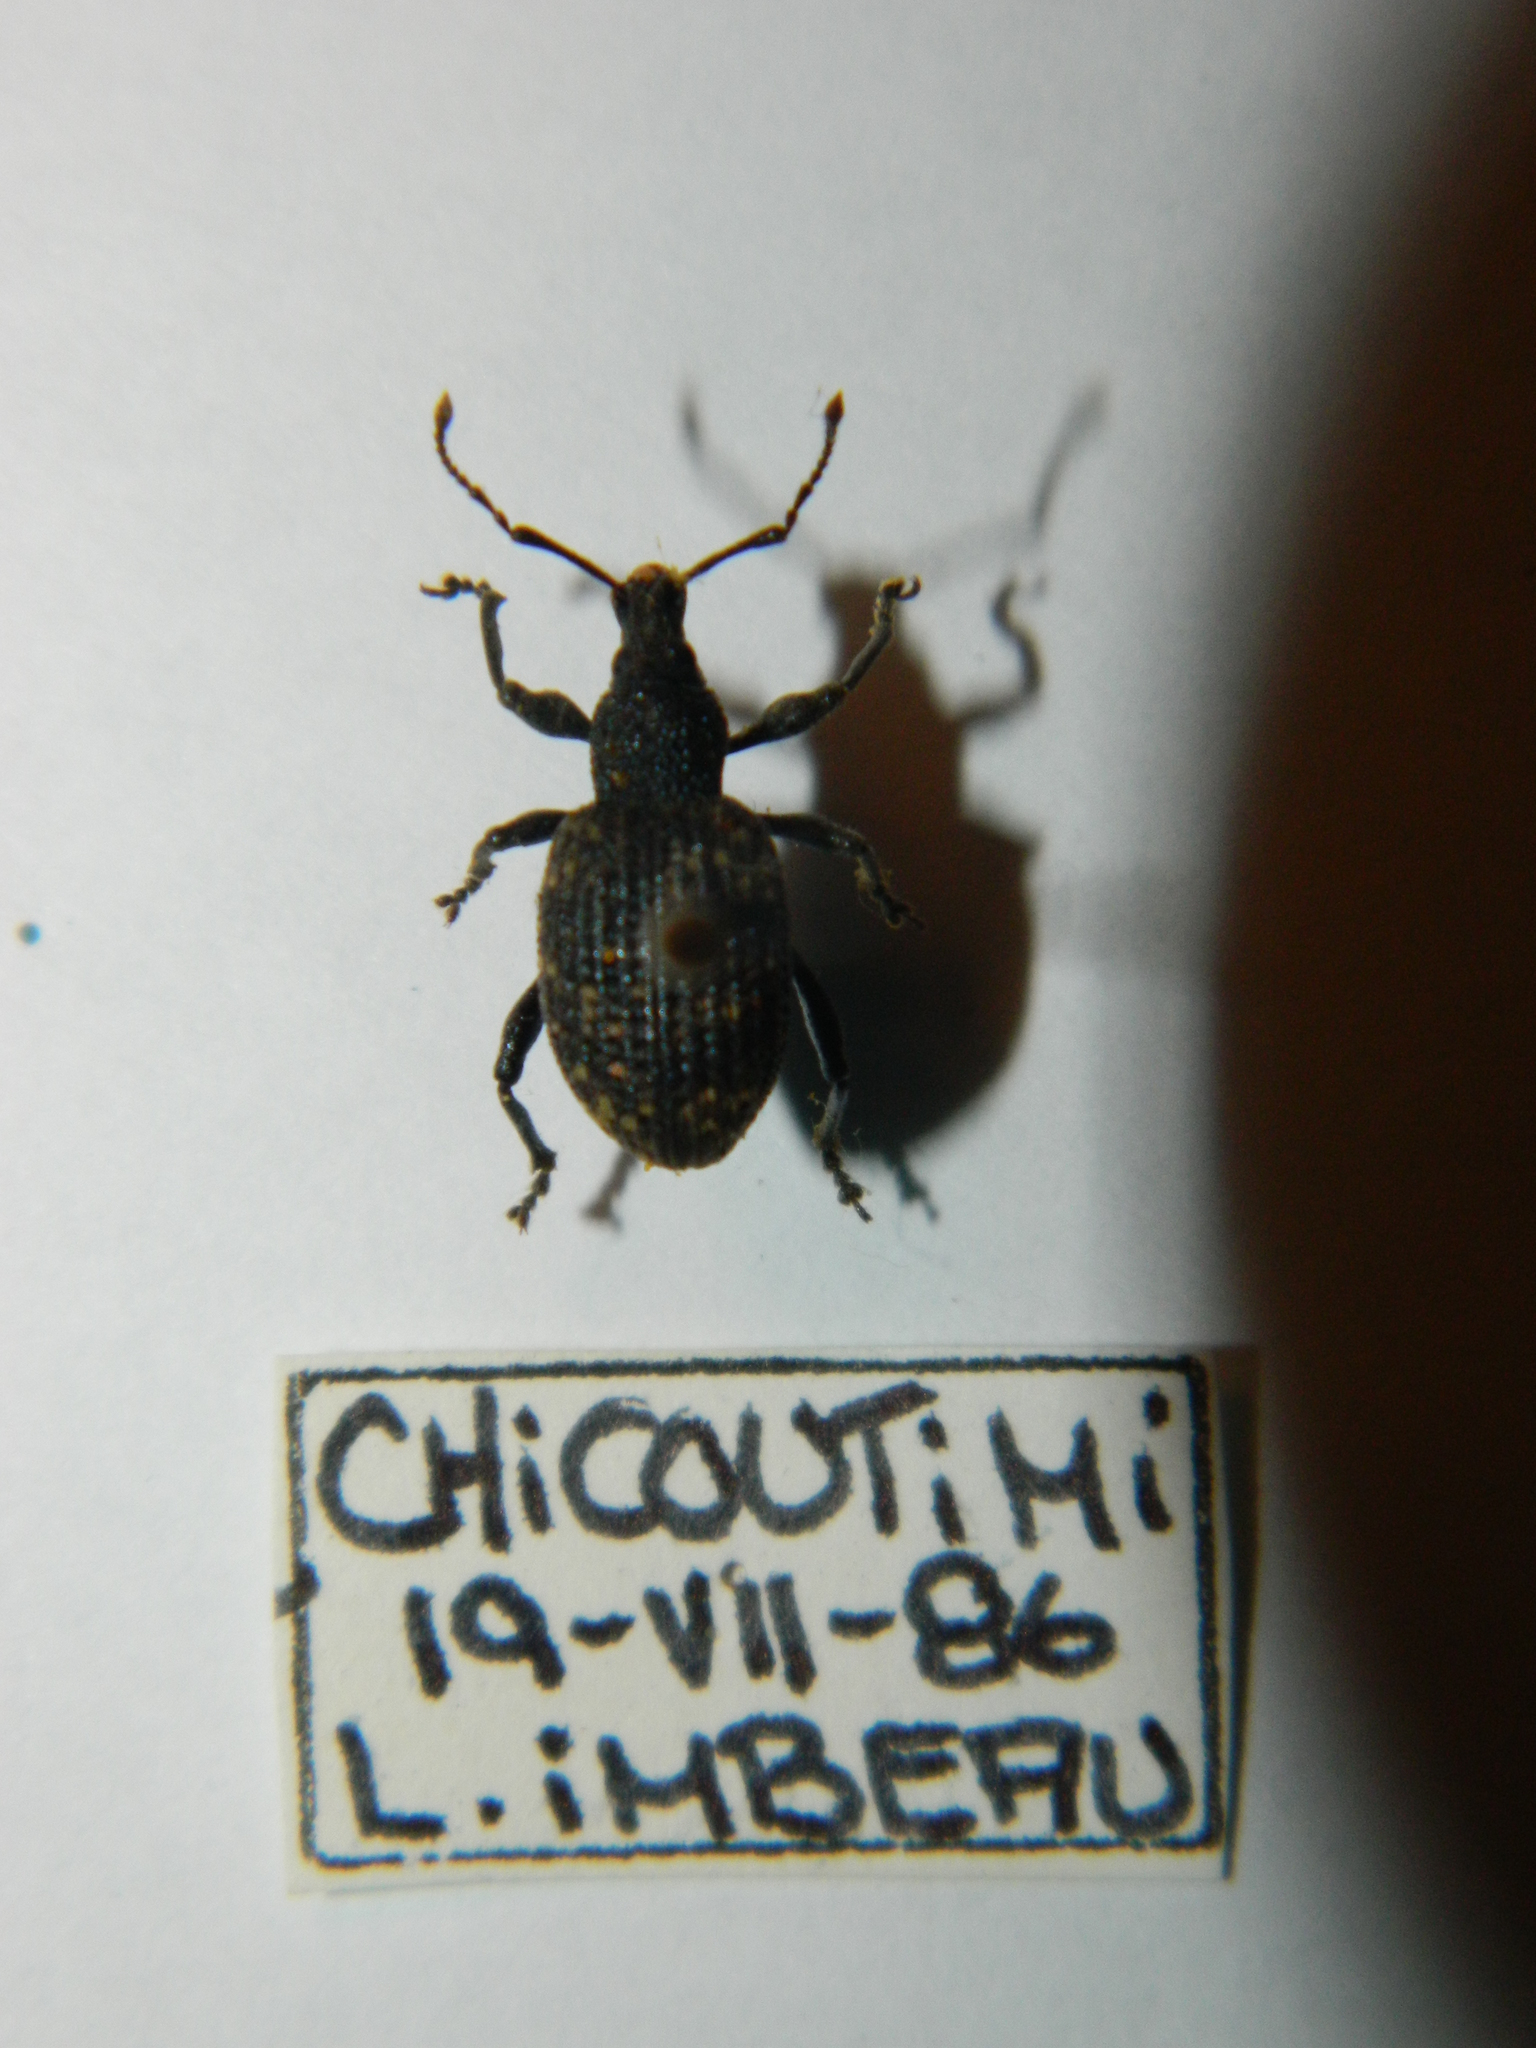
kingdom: Animalia
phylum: Arthropoda
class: Insecta
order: Coleoptera
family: Curculionidae
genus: Otiorhynchus
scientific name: Otiorhynchus sulcatus
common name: Black vine weevil
